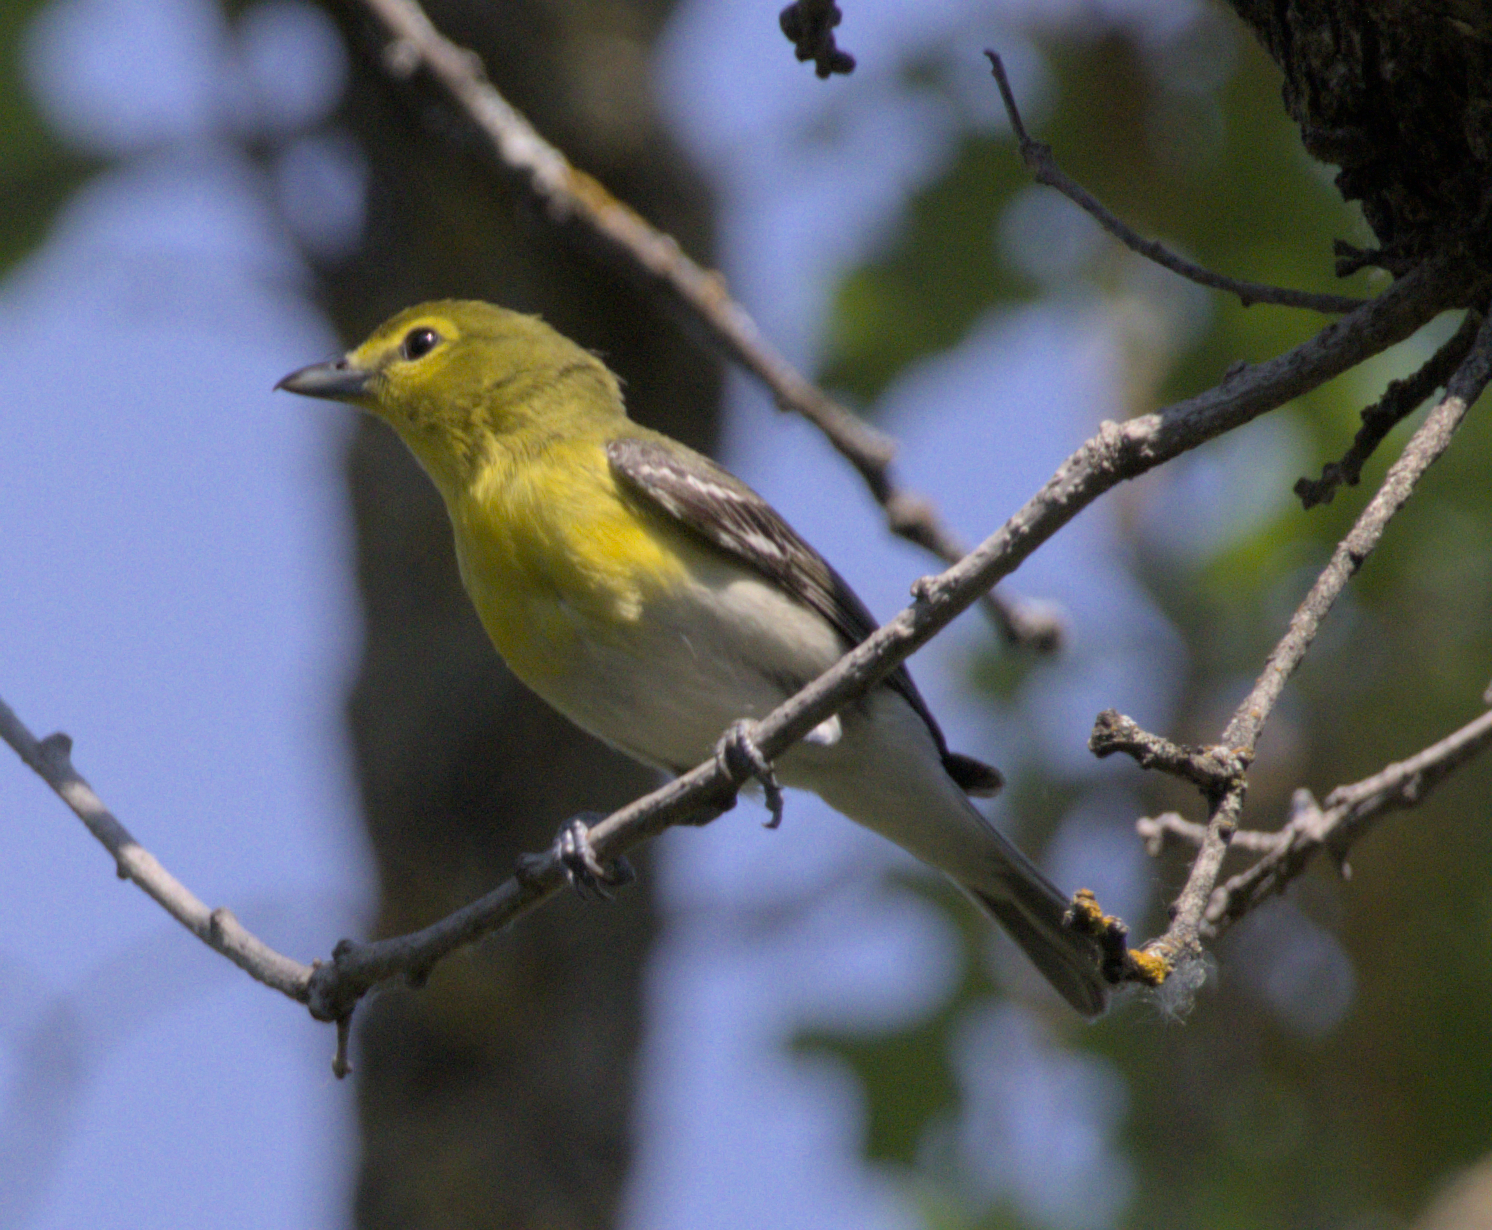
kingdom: Animalia
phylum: Chordata
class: Aves
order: Passeriformes
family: Vireonidae
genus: Vireo
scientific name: Vireo flavifrons
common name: Yellow-throated vireo
